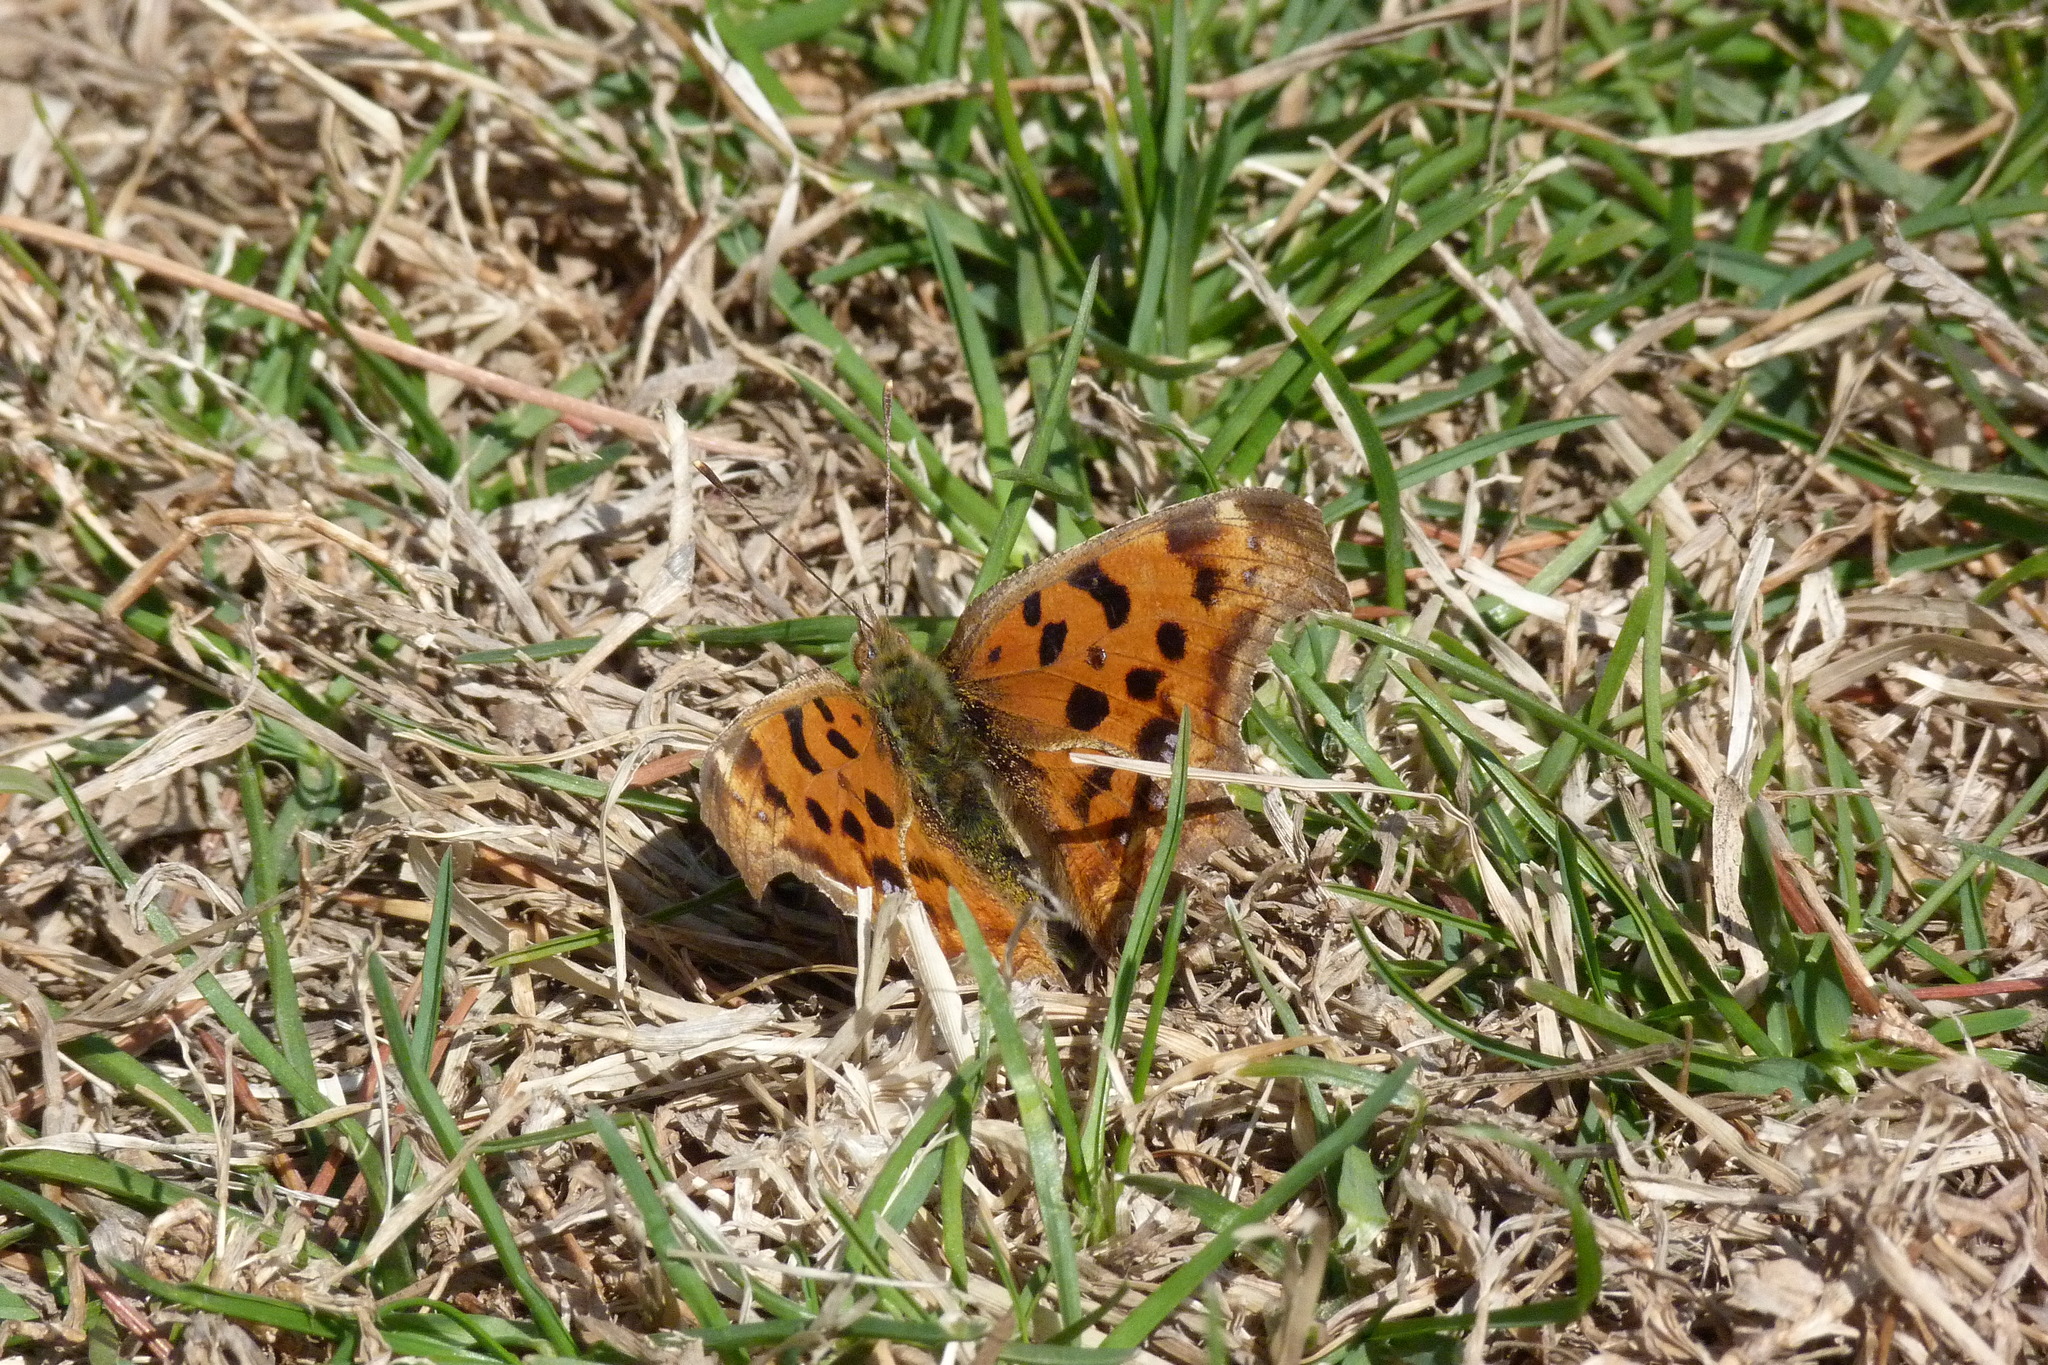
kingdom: Animalia
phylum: Arthropoda
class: Insecta
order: Lepidoptera
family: Nymphalidae
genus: Polygonia
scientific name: Polygonia c-aureum
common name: Asian comma
